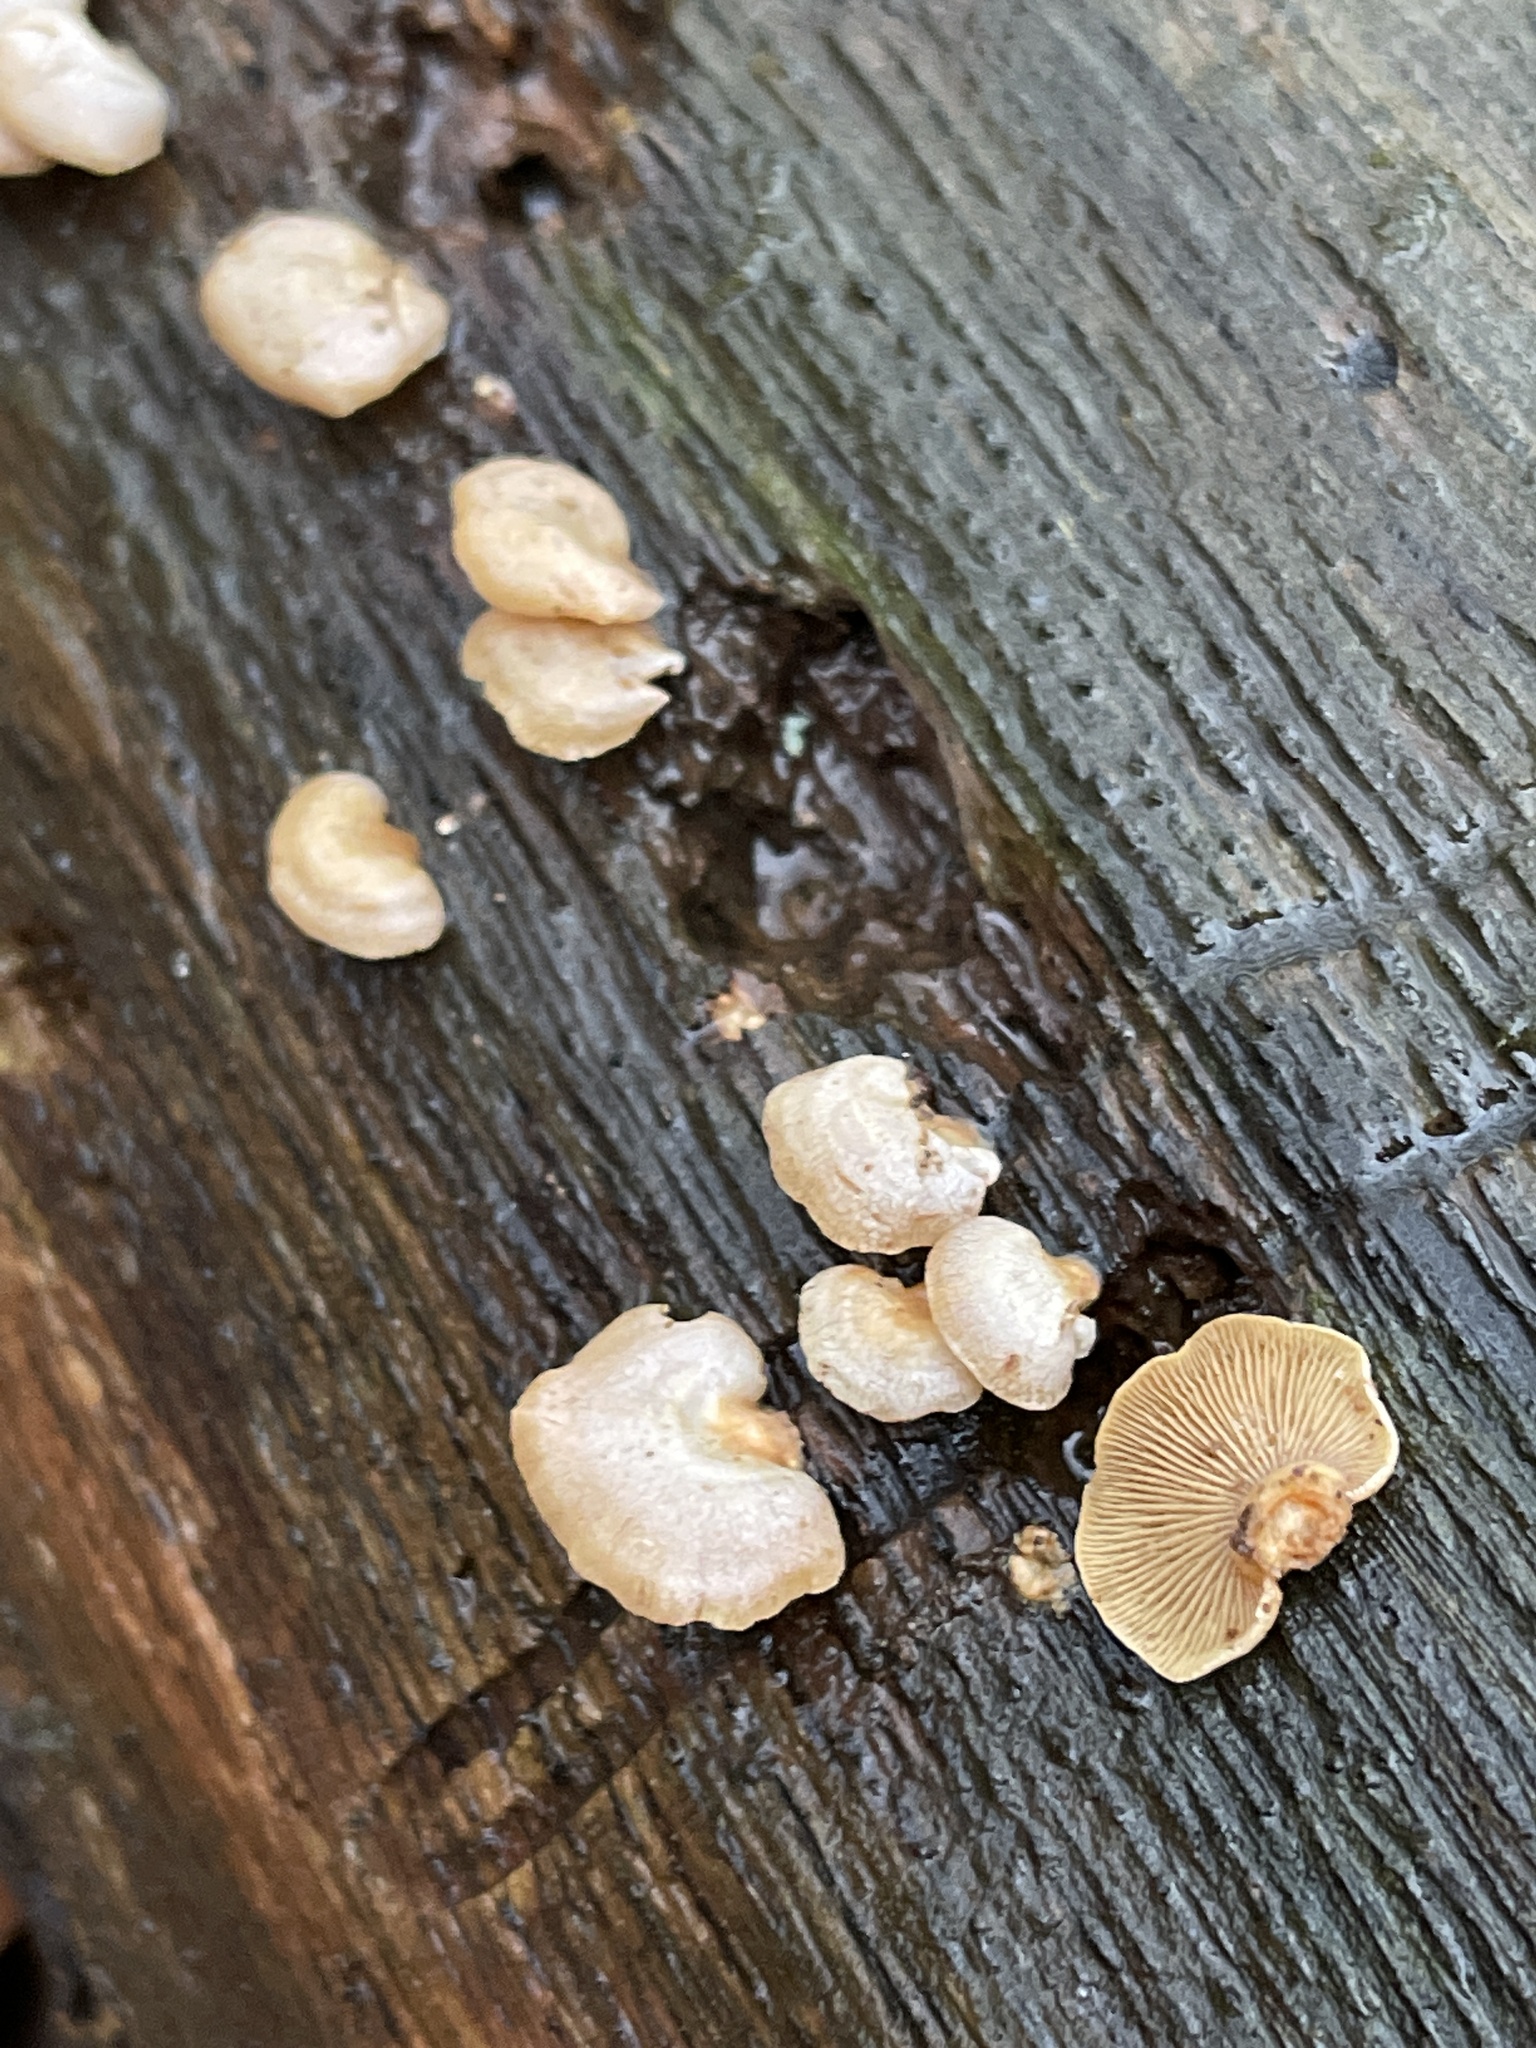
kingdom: Fungi
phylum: Basidiomycota
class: Agaricomycetes
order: Agaricales
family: Mycenaceae
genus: Panellus
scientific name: Panellus stipticus
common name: Bitter oysterling
